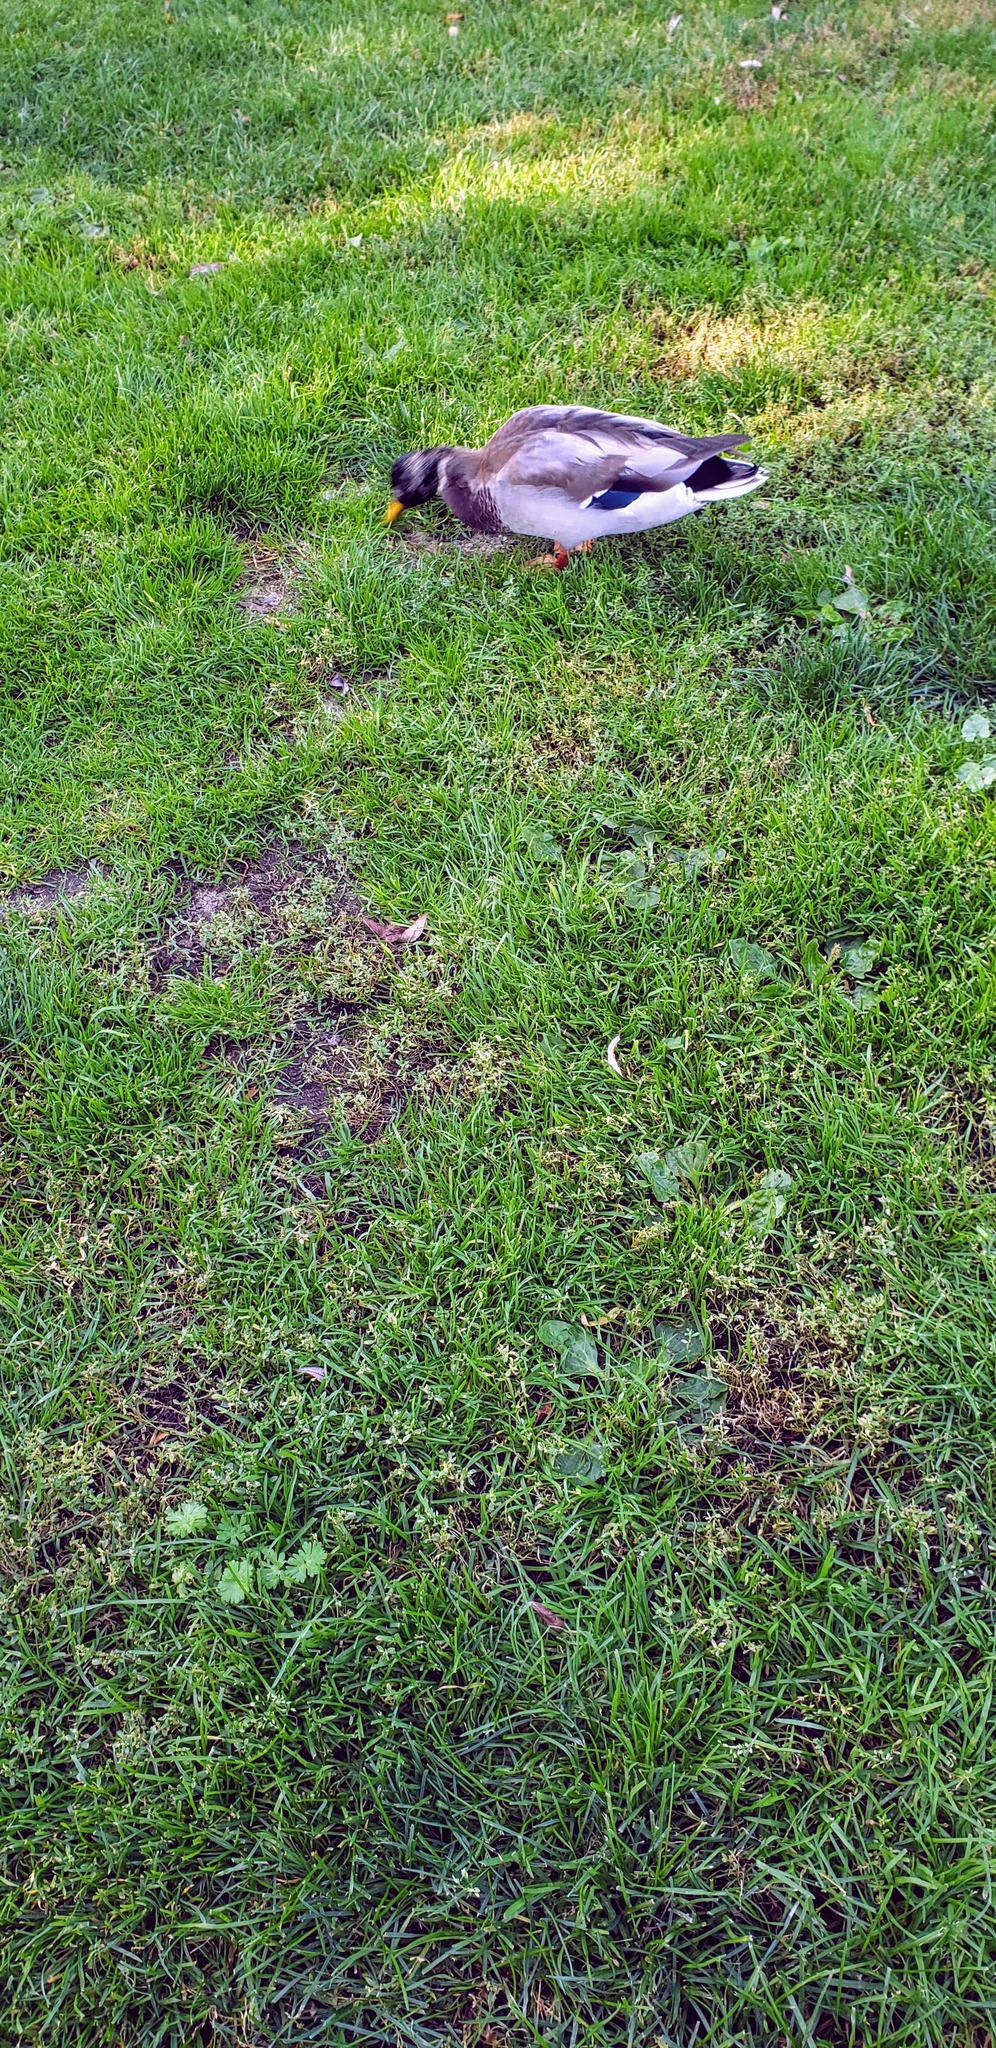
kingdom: Animalia
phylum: Chordata
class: Aves
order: Anseriformes
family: Anatidae
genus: Anas
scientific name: Anas platyrhynchos
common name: Mallard
